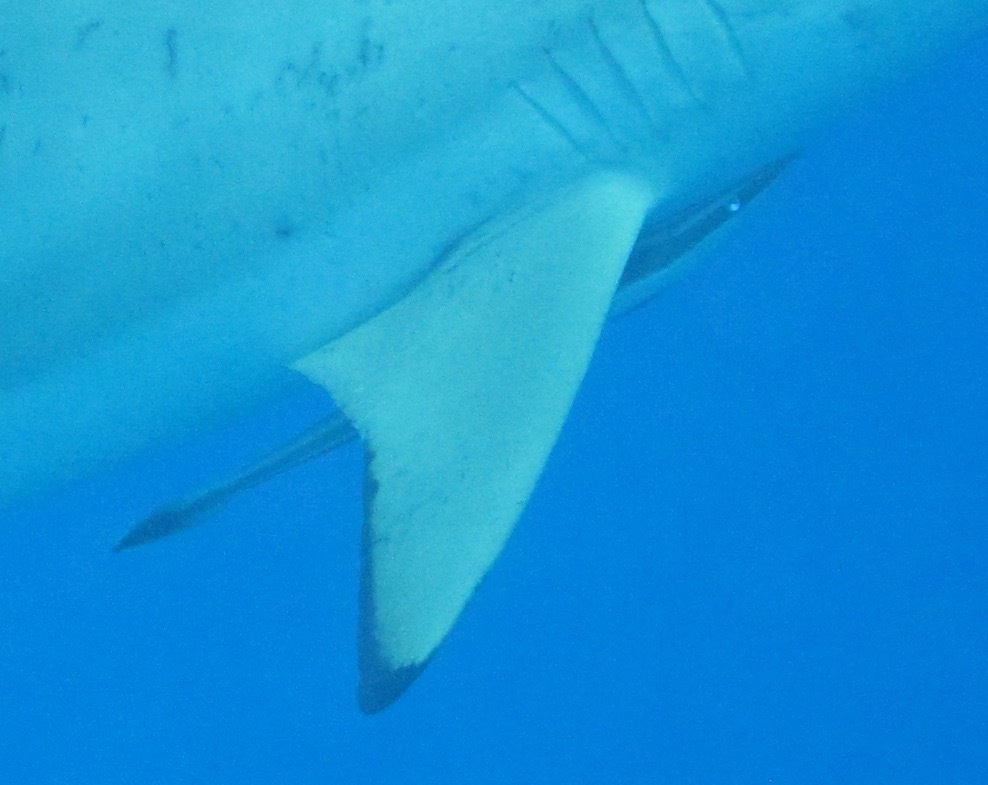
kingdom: Animalia
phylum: Chordata
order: Perciformes
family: Echeneidae
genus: Echeneis
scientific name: Echeneis naucrates
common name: Sharksucker
